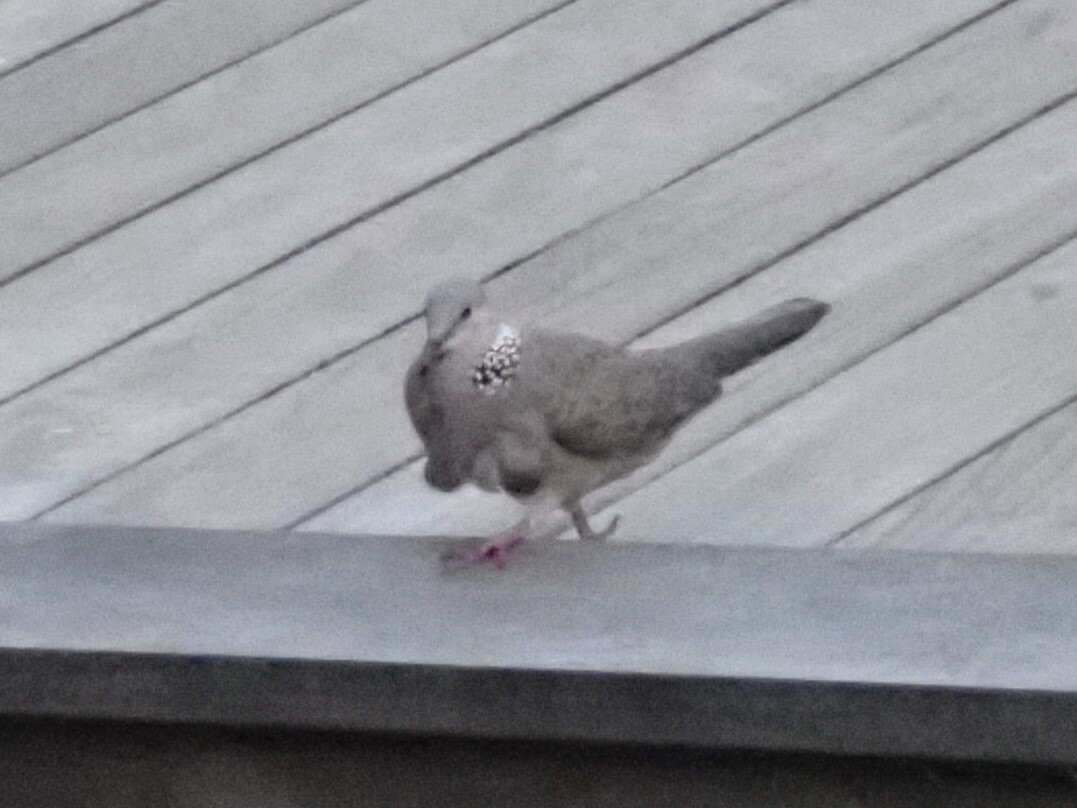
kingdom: Animalia
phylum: Chordata
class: Aves
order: Columbiformes
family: Columbidae
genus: Spilopelia
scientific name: Spilopelia chinensis
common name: Spotted dove
